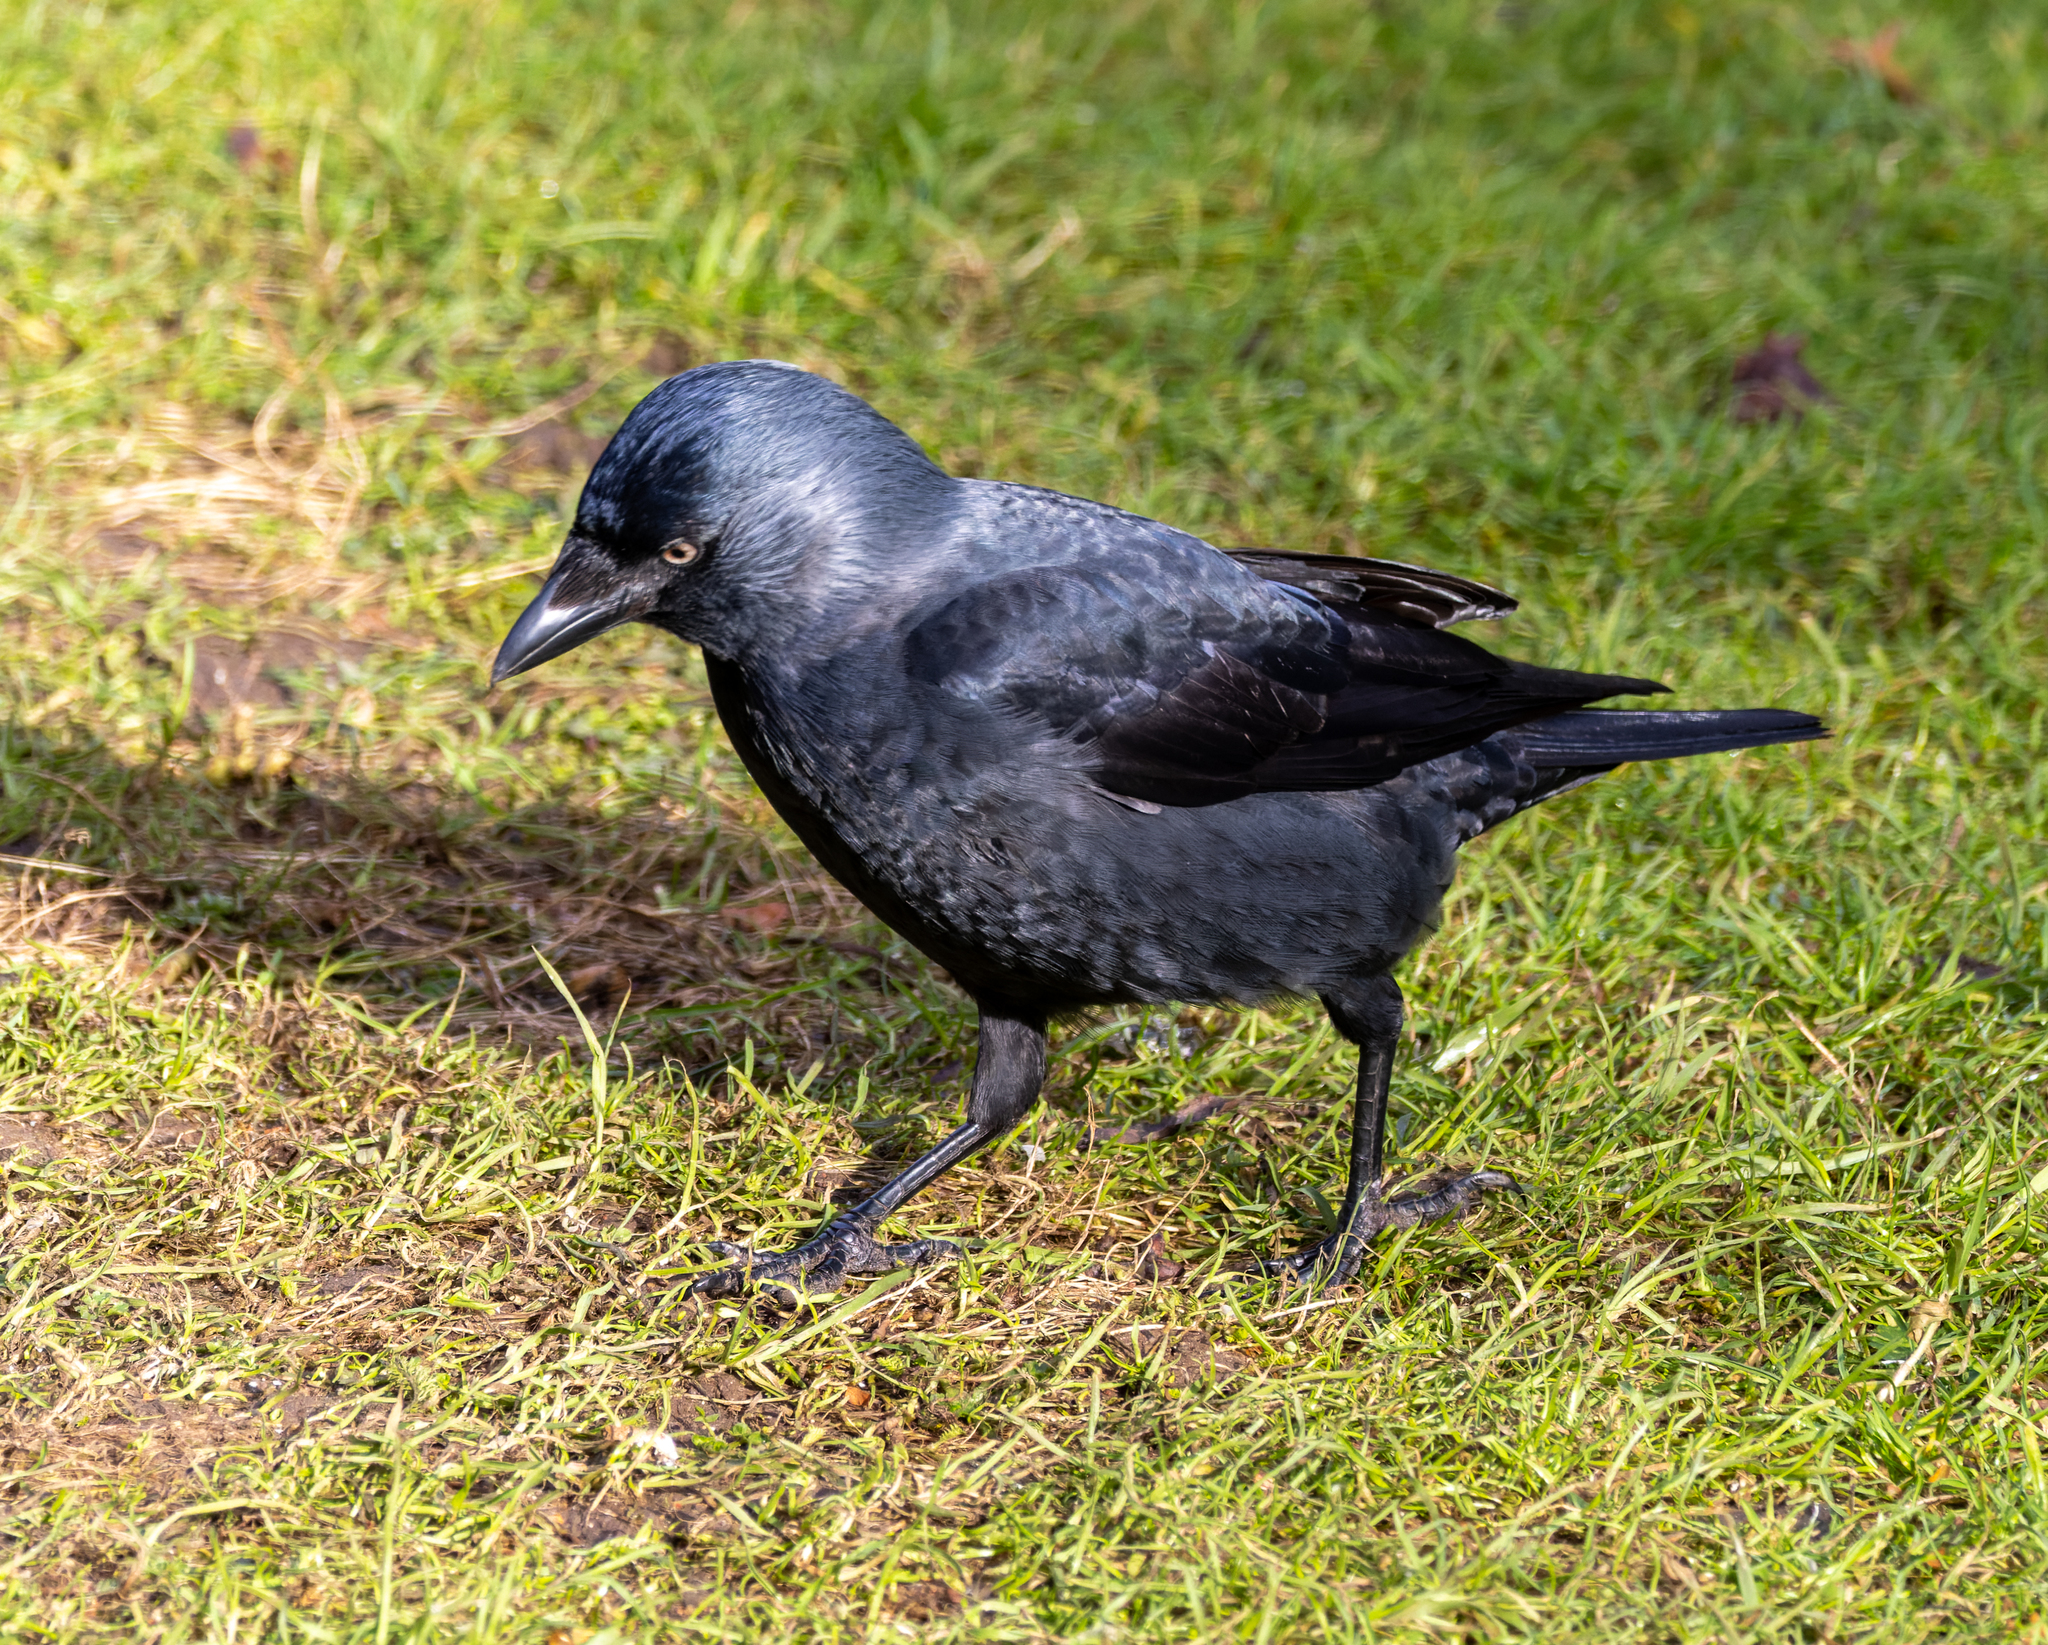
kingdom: Animalia
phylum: Chordata
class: Aves
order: Passeriformes
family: Corvidae
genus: Coloeus
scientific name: Coloeus monedula
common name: Western jackdaw
